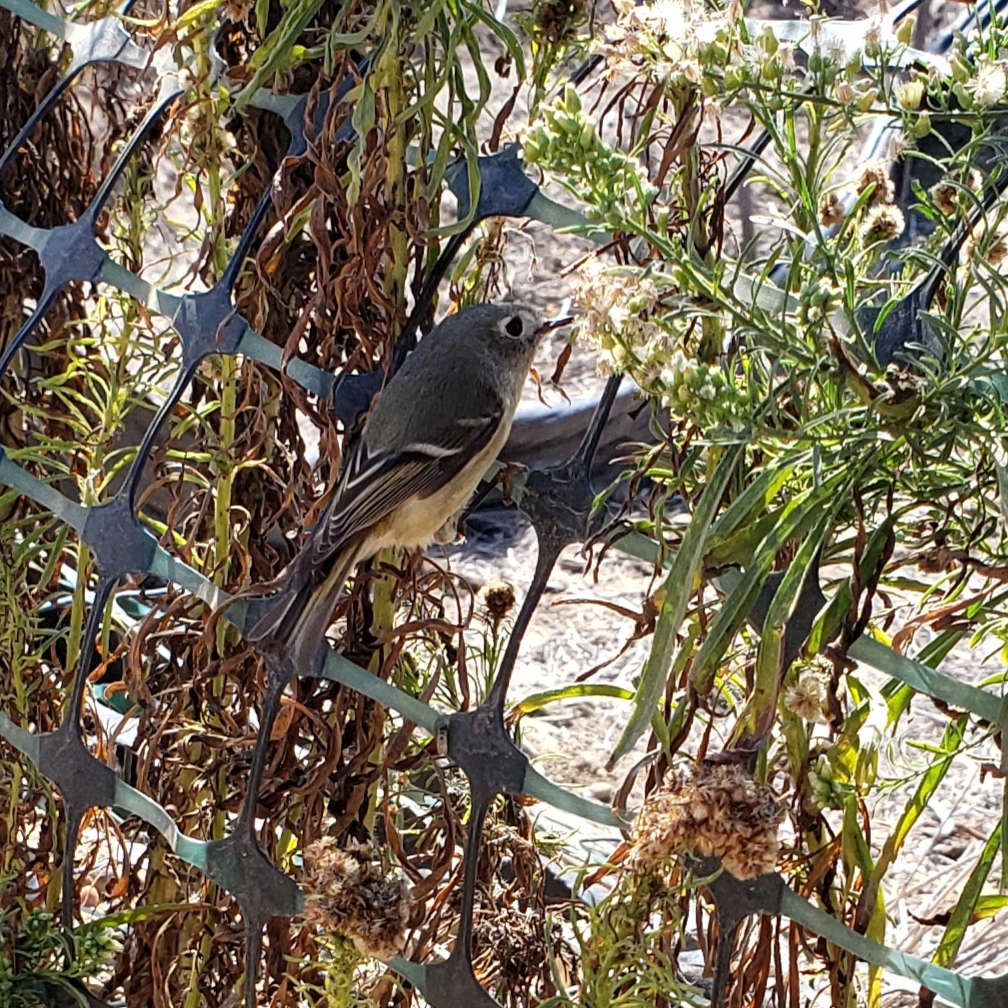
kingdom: Animalia
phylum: Chordata
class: Aves
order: Passeriformes
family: Regulidae
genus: Regulus
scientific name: Regulus calendula
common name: Ruby-crowned kinglet
